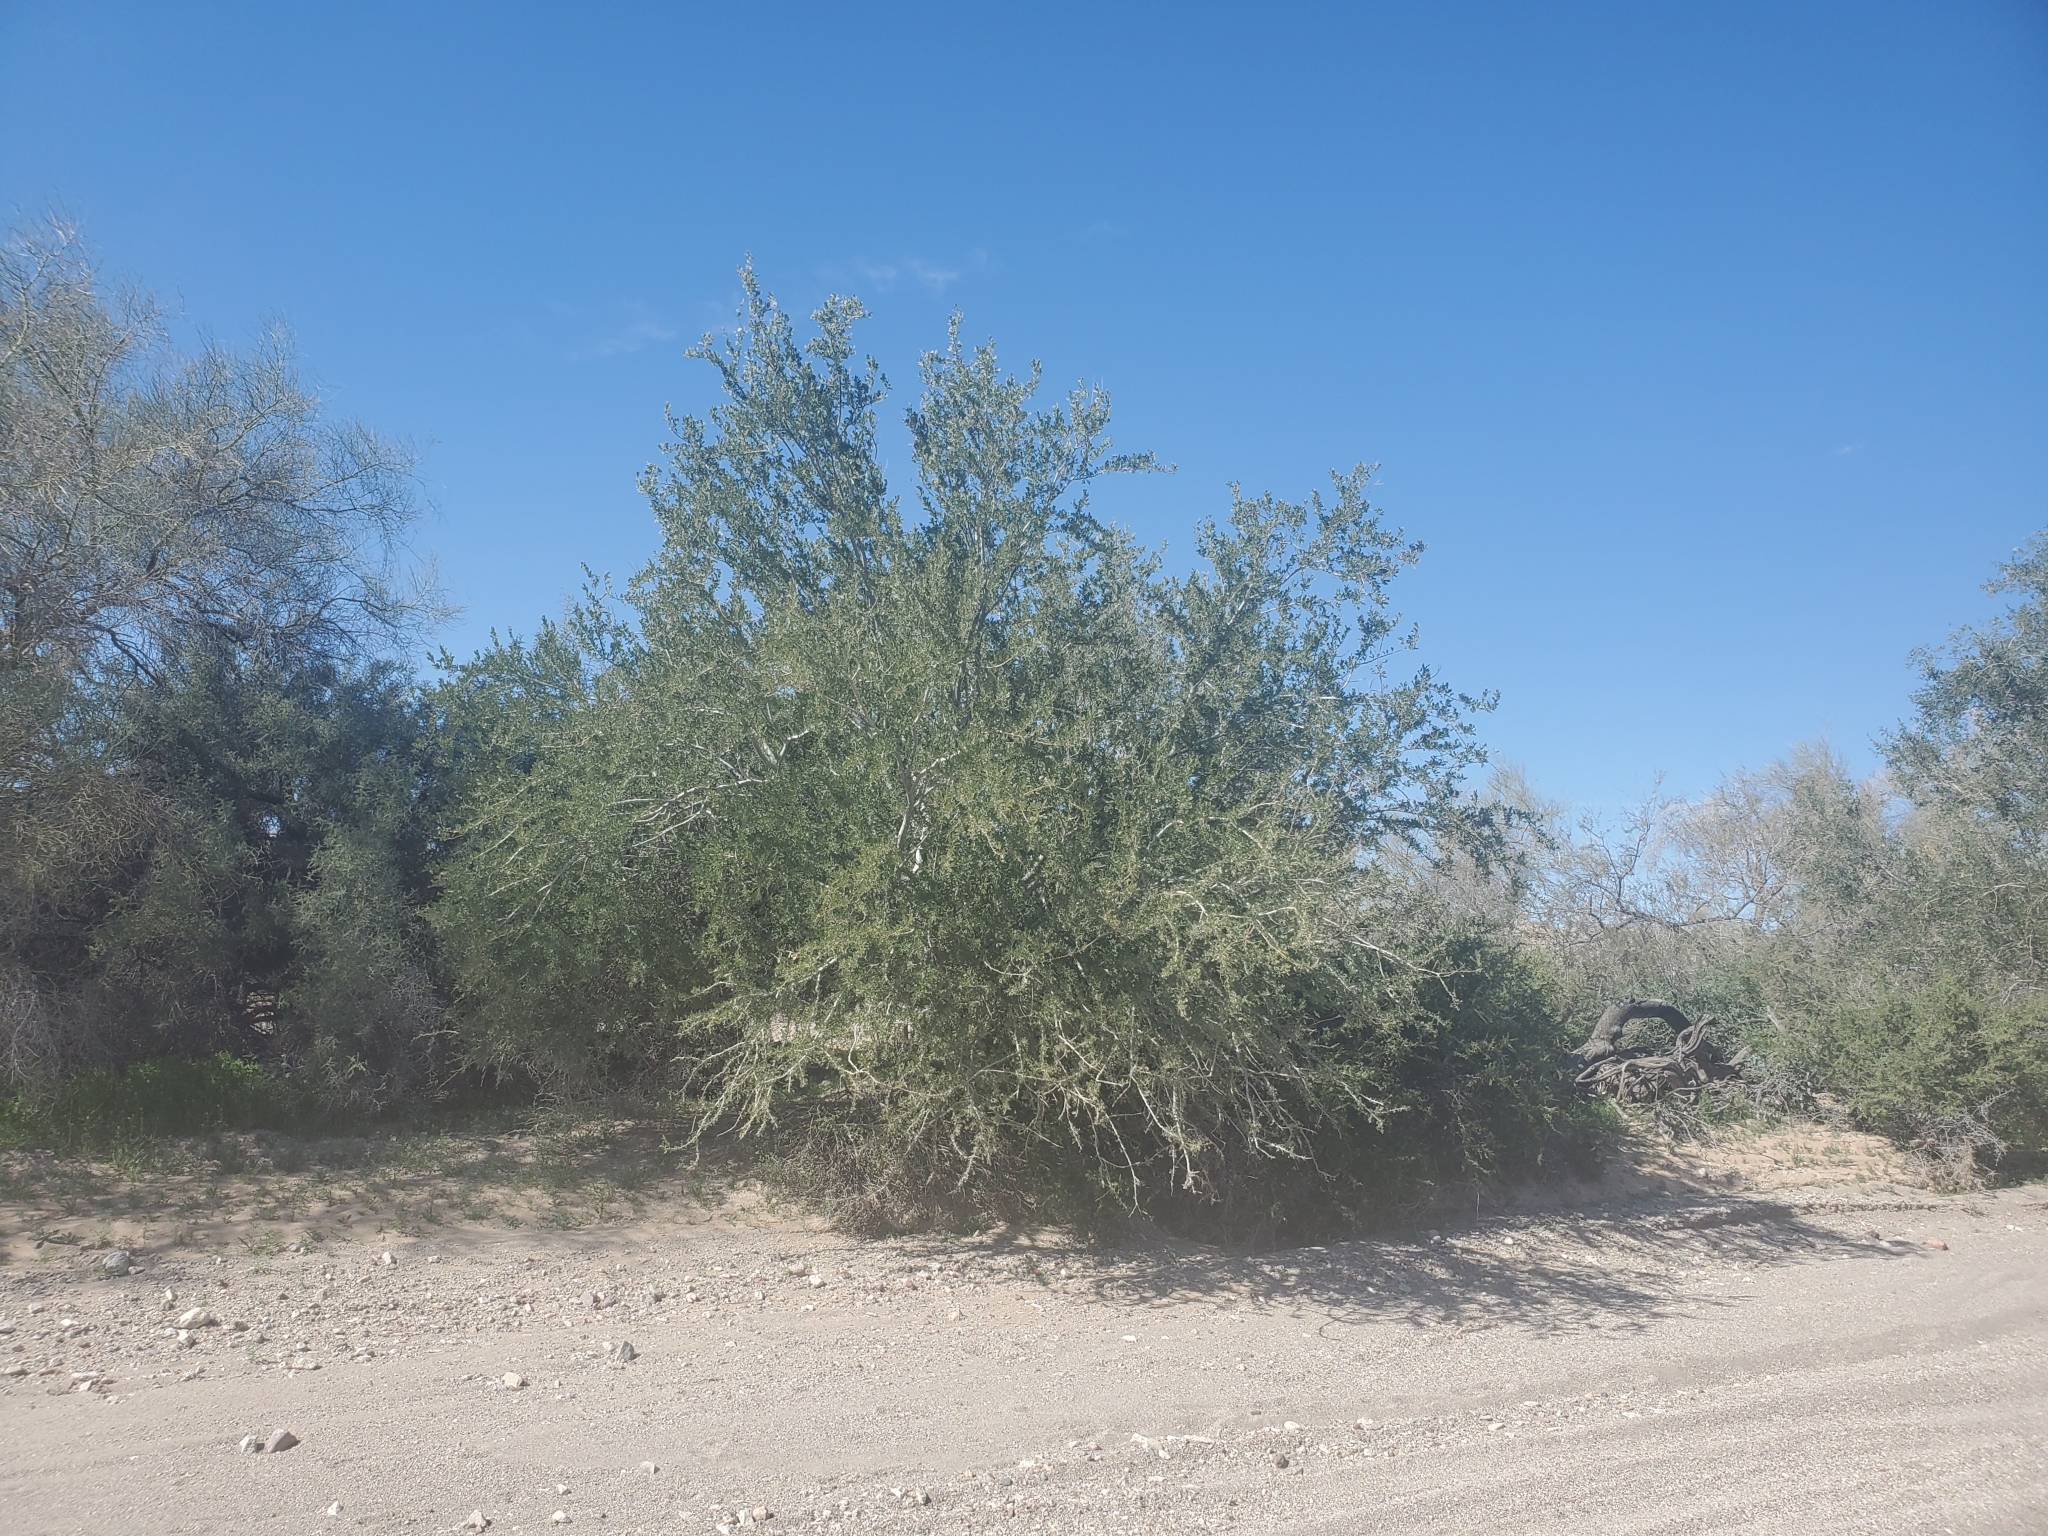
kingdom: Plantae
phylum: Tracheophyta
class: Magnoliopsida
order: Fabales
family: Fabaceae
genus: Olneya
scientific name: Olneya tesota
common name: Desert ironwood
